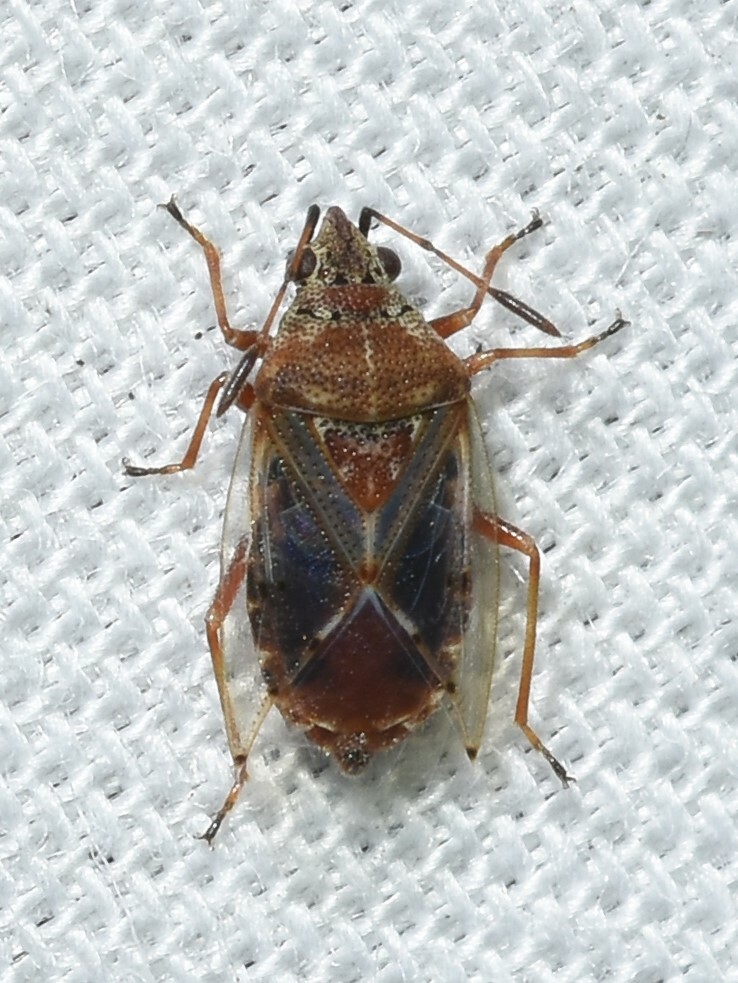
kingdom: Animalia
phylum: Arthropoda
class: Insecta
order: Hemiptera
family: Lygaeidae
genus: Kleidocerys
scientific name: Kleidocerys resedae
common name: Birch catkin bug
